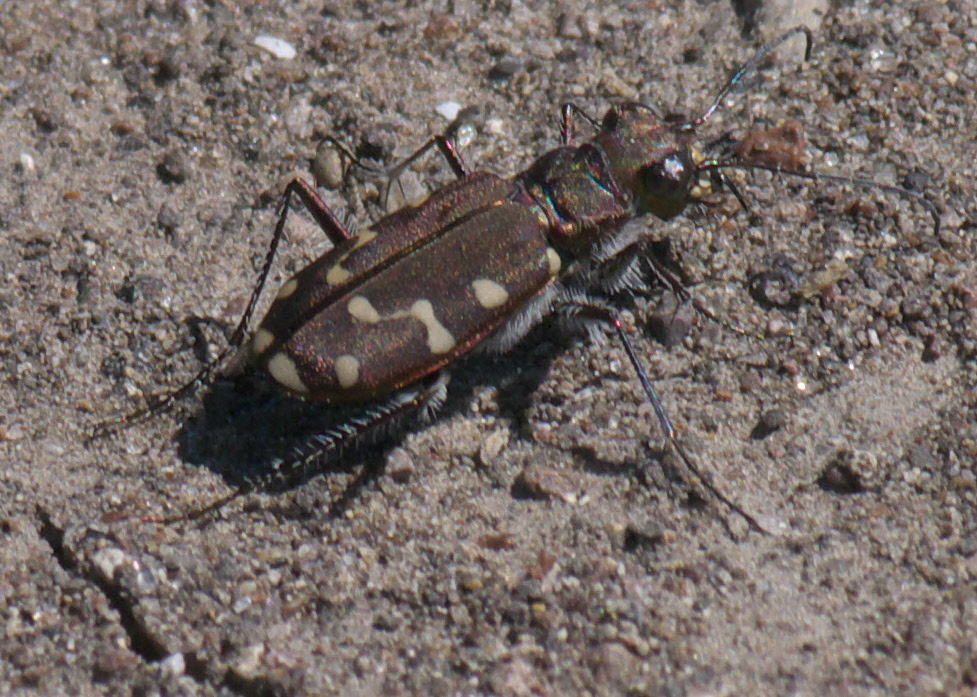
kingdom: Animalia
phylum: Arthropoda
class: Insecta
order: Coleoptera
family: Carabidae
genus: Cicindela
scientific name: Cicindela oregona
